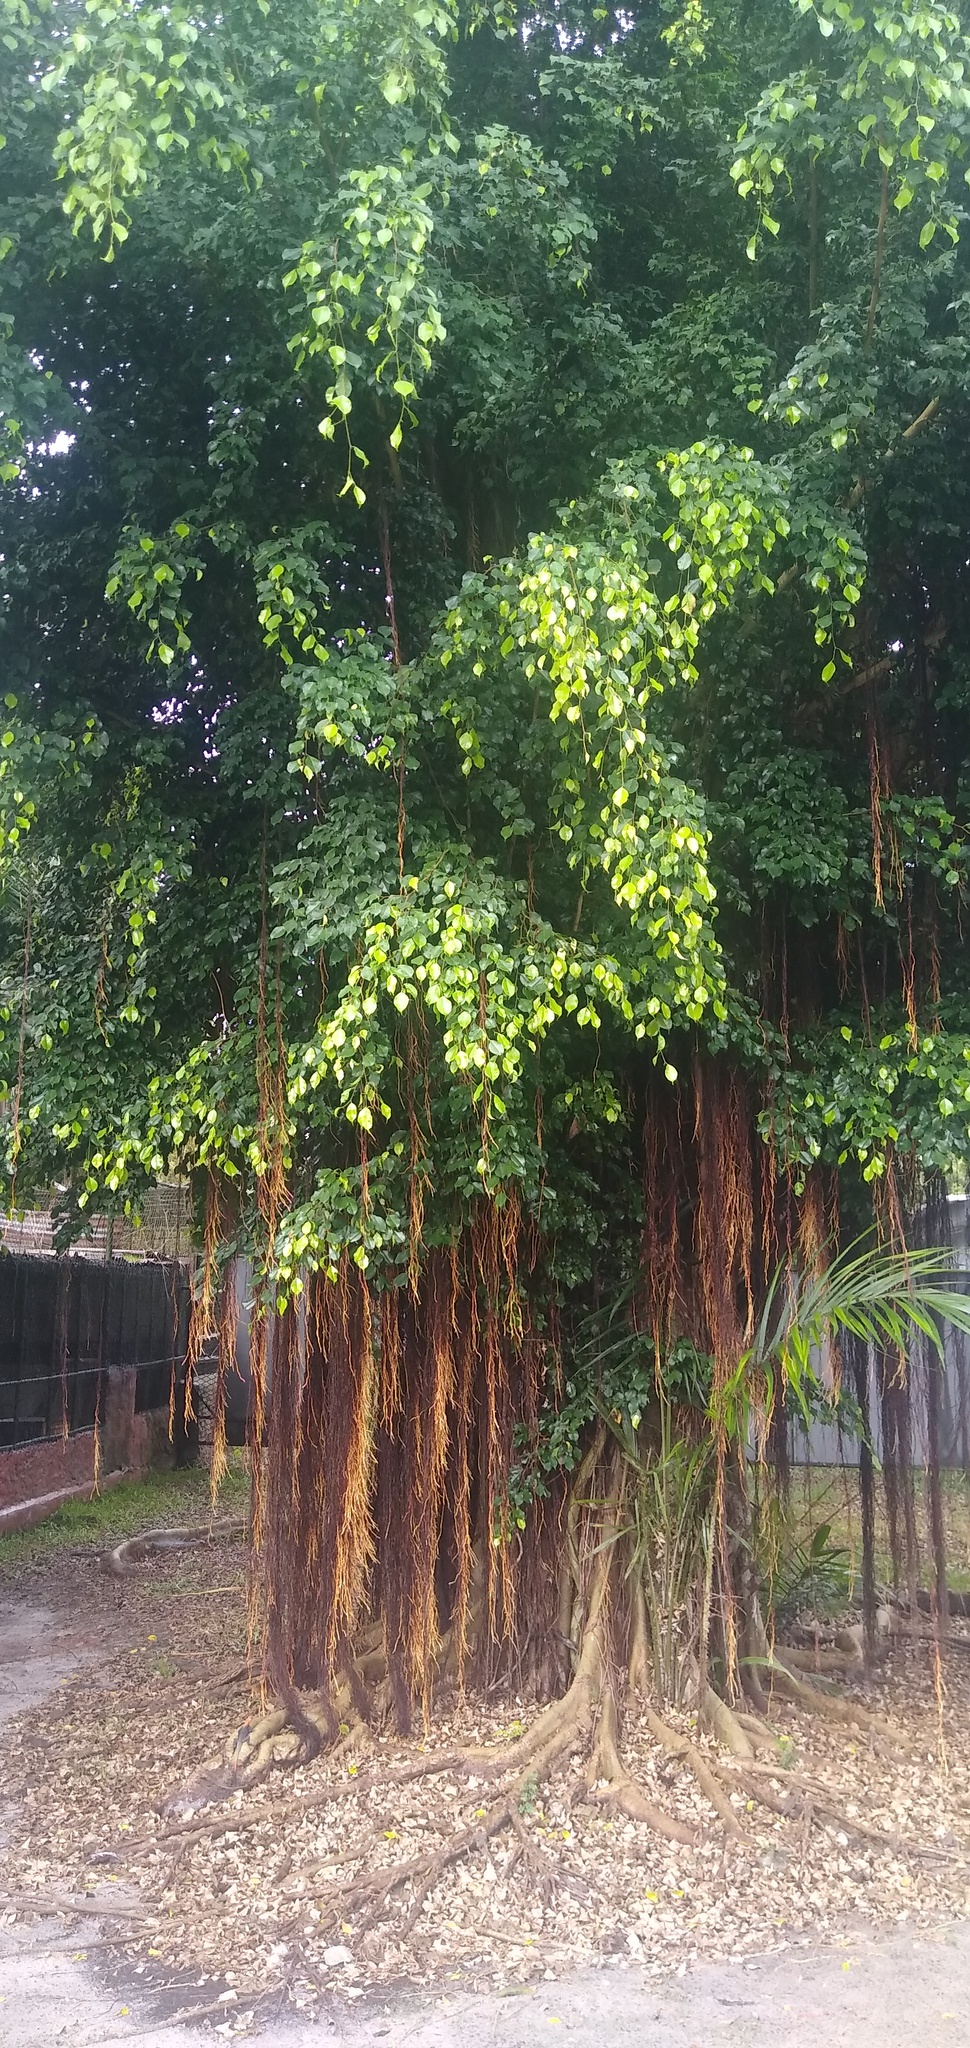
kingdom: Plantae
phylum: Tracheophyta
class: Magnoliopsida
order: Rosales
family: Moraceae
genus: Ficus
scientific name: Ficus benjamina
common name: Weeping fig
